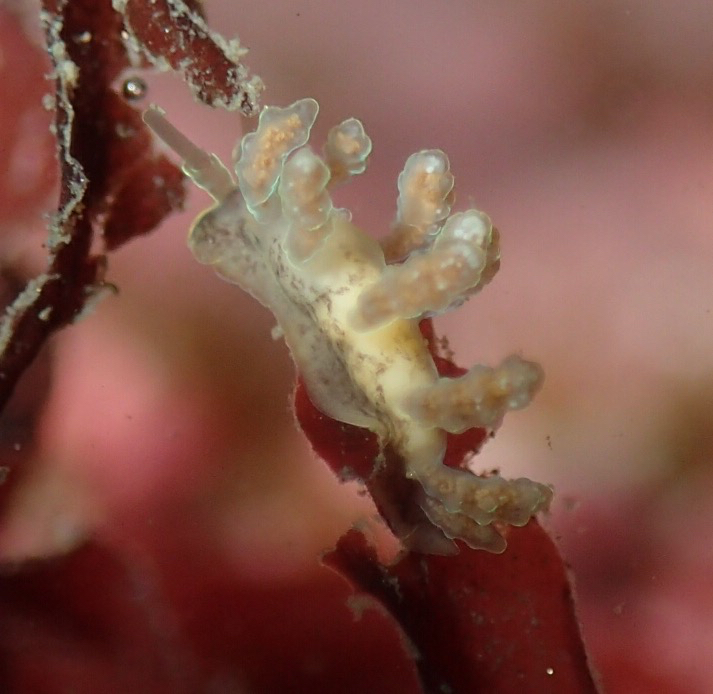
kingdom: Animalia
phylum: Mollusca
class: Gastropoda
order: Nudibranchia
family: Dotidae
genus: Doto
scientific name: Doto columbiana
